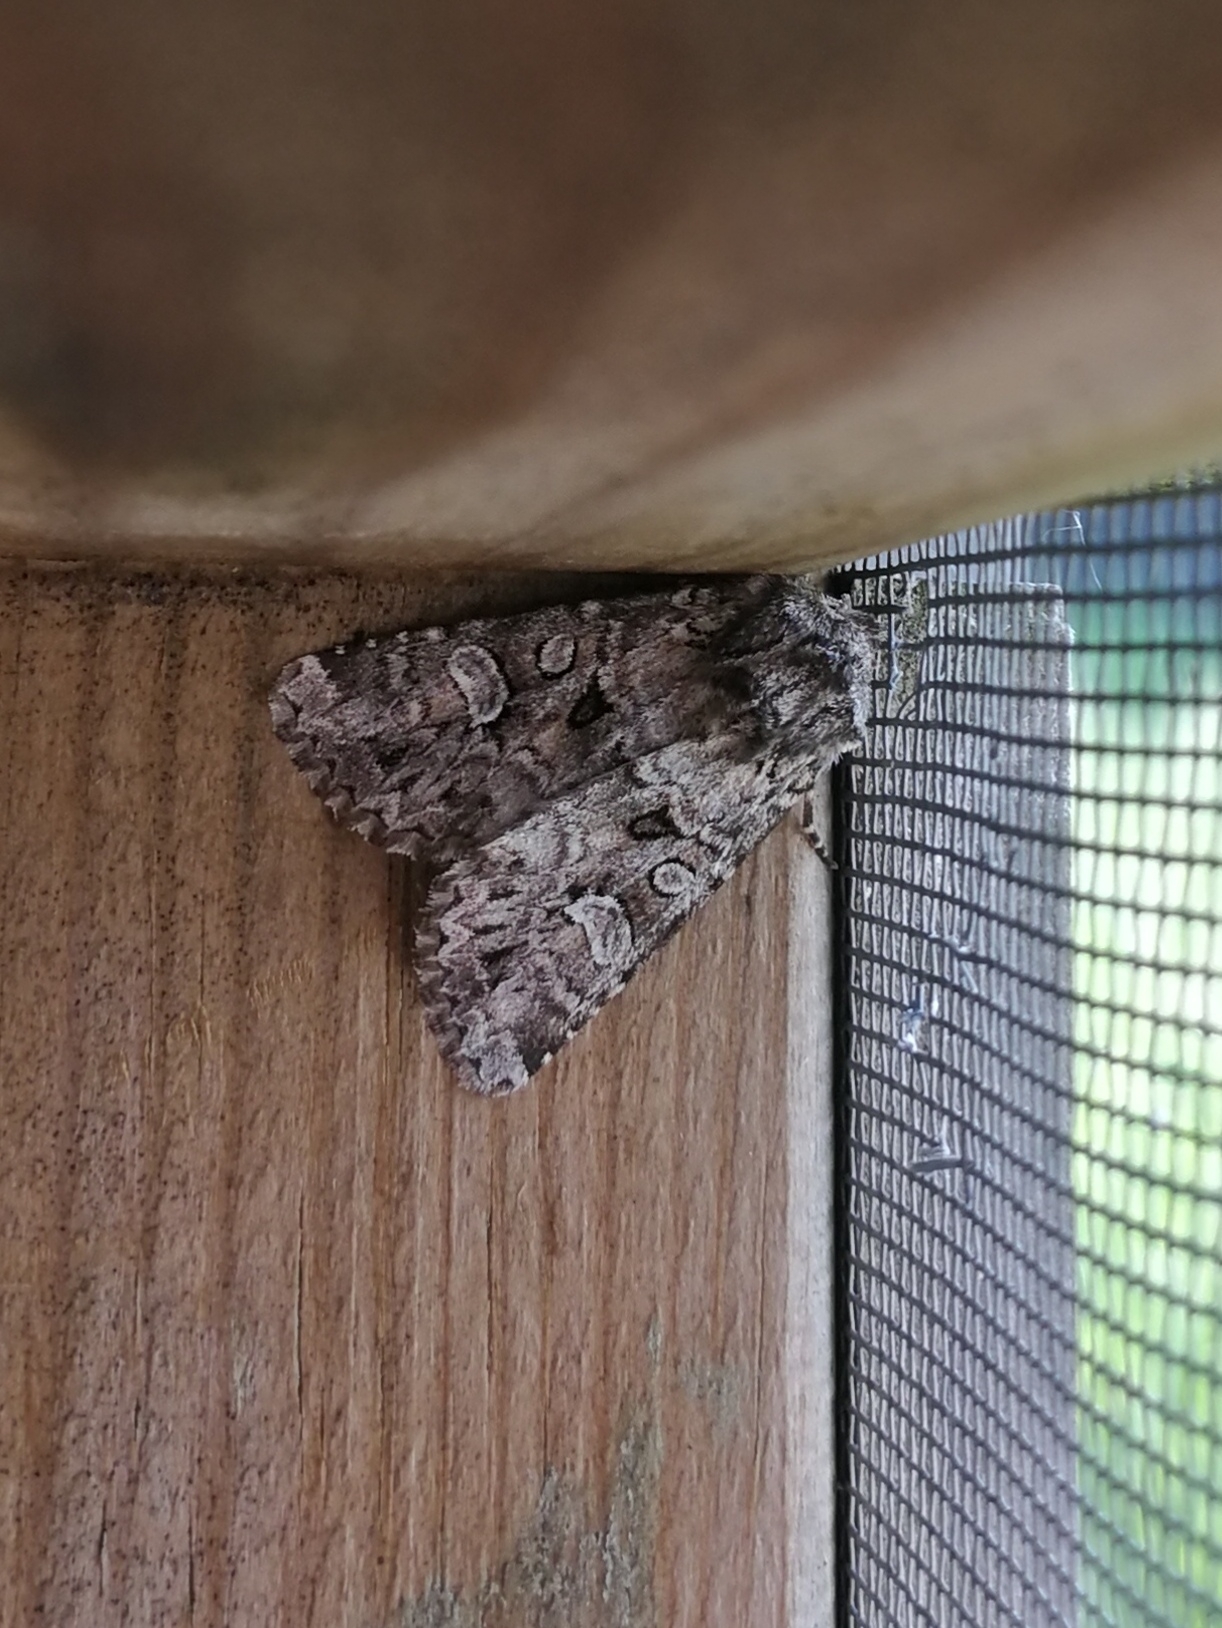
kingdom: Animalia
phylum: Arthropoda
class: Insecta
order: Lepidoptera
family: Noctuidae
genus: Pachetra
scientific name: Pachetra sagittigera
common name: Feathered ear
